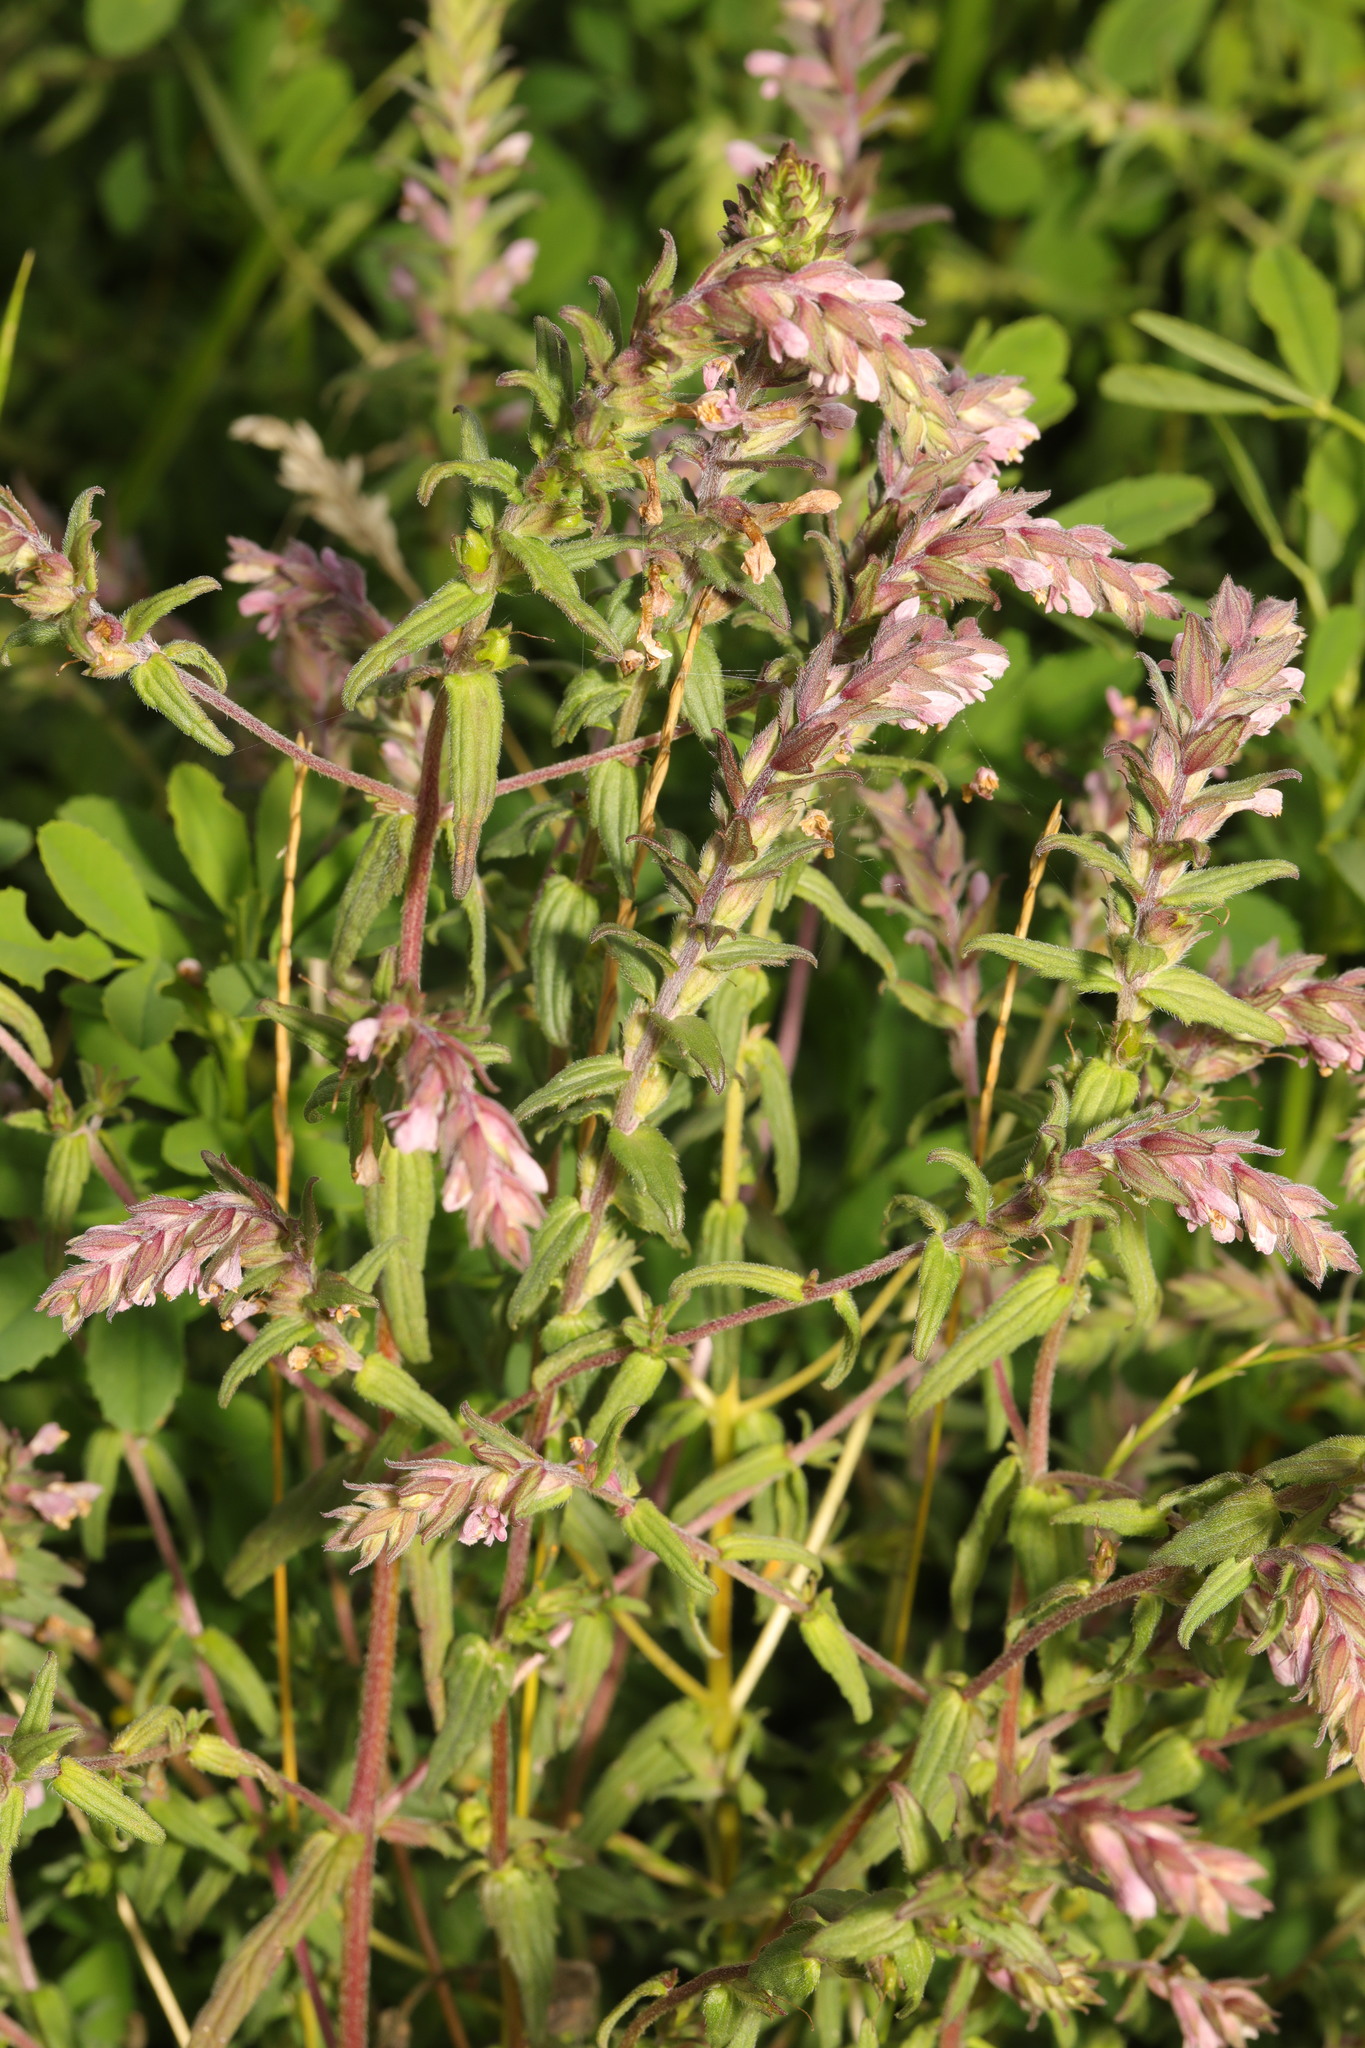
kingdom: Plantae
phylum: Tracheophyta
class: Magnoliopsida
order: Lamiales
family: Orobanchaceae
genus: Odontites
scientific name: Odontites vulgaris
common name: Broomrape
